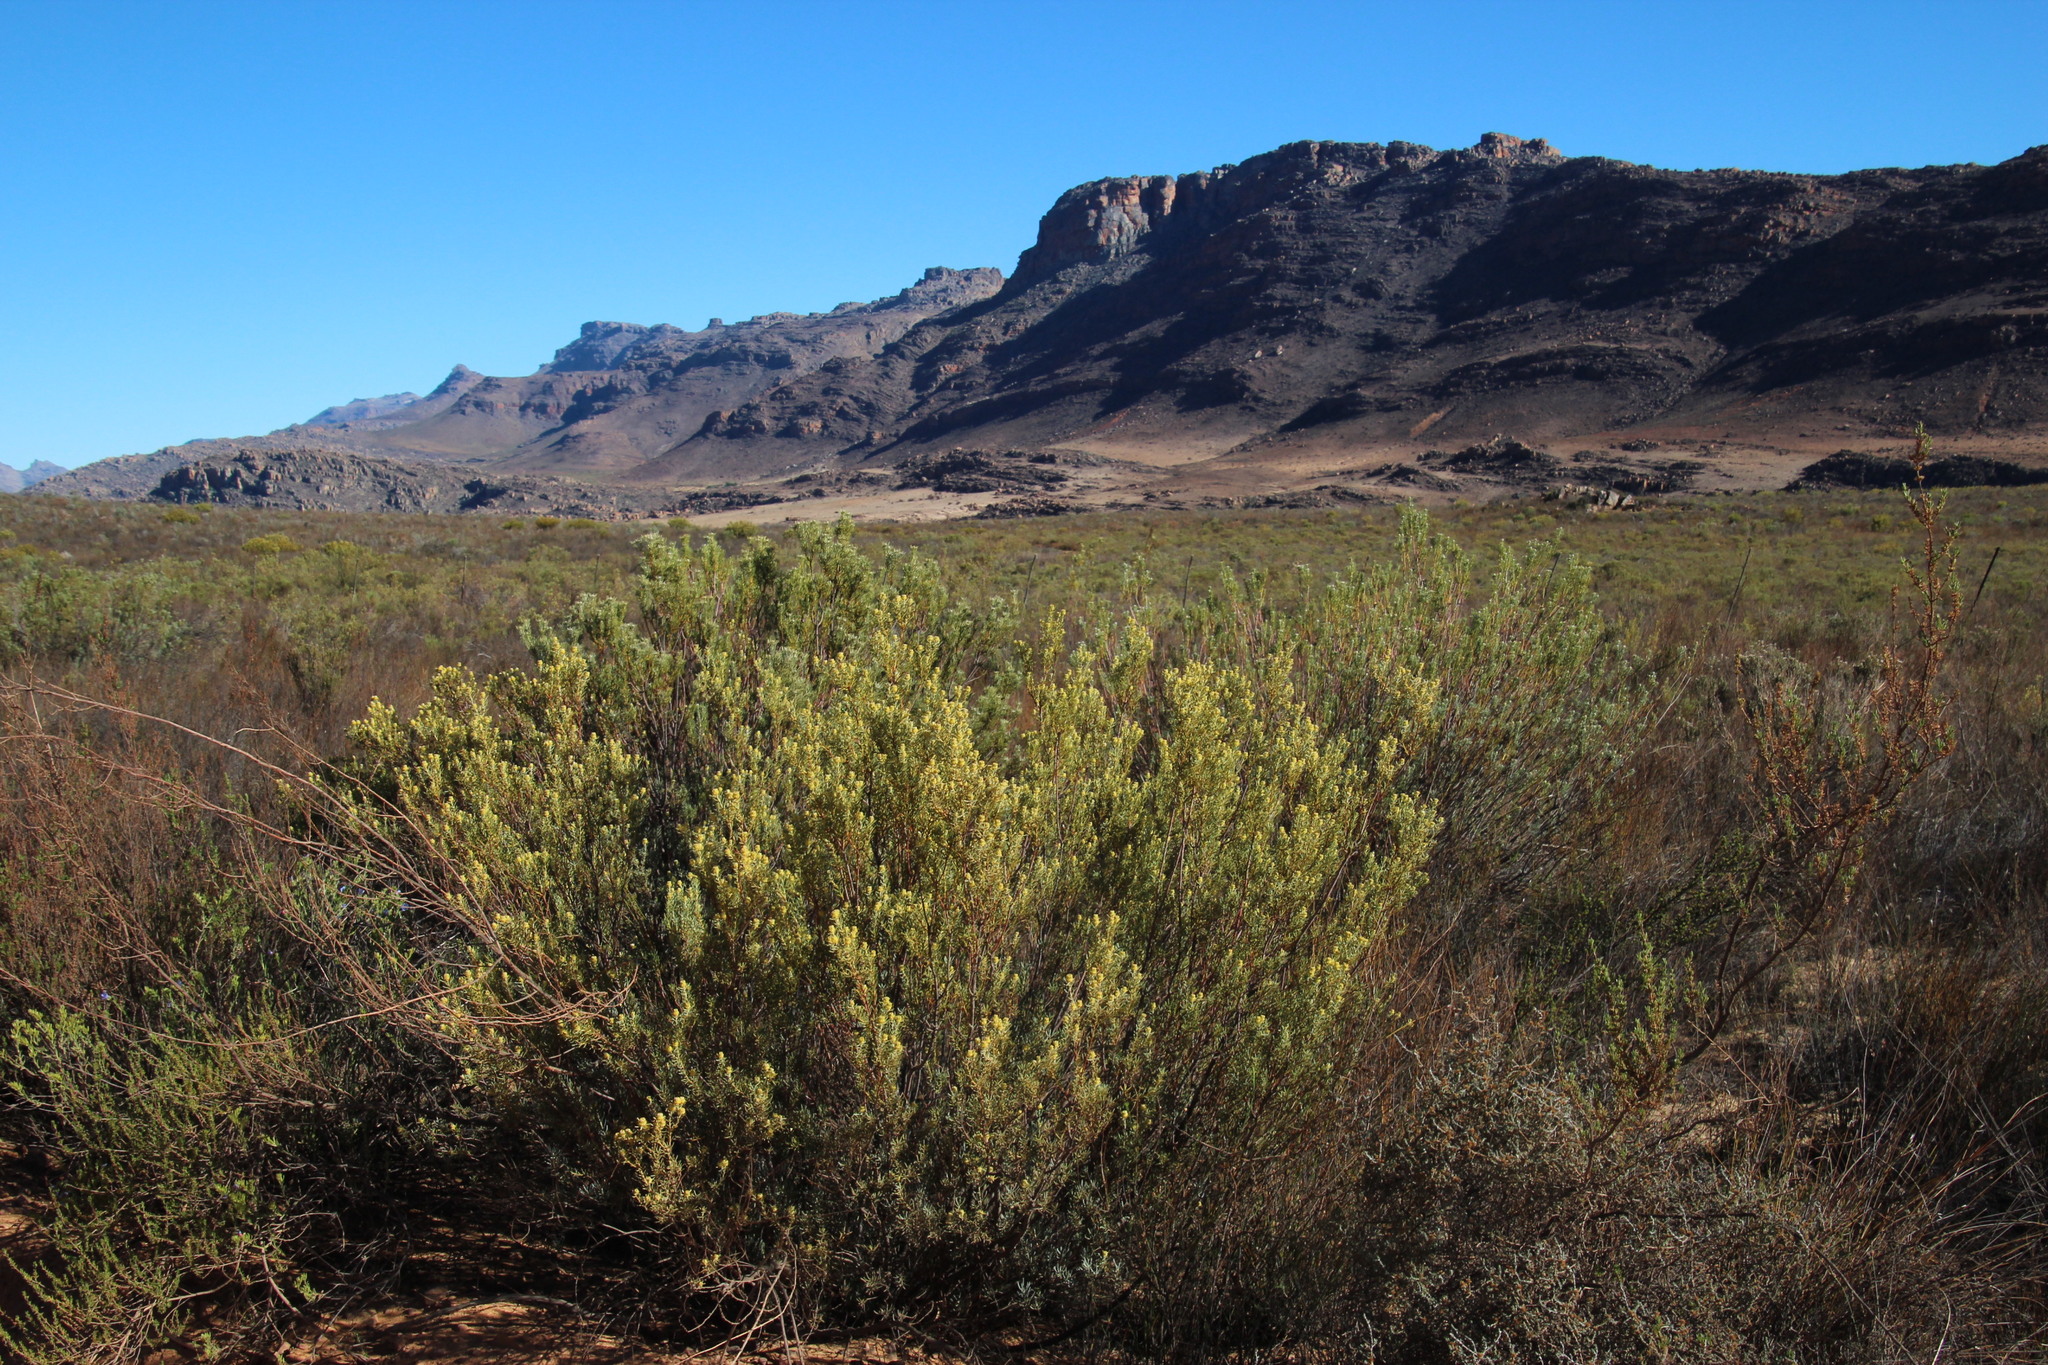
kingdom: Plantae
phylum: Tracheophyta
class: Magnoliopsida
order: Proteales
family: Proteaceae
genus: Leucadendron
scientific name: Leucadendron brunioides
